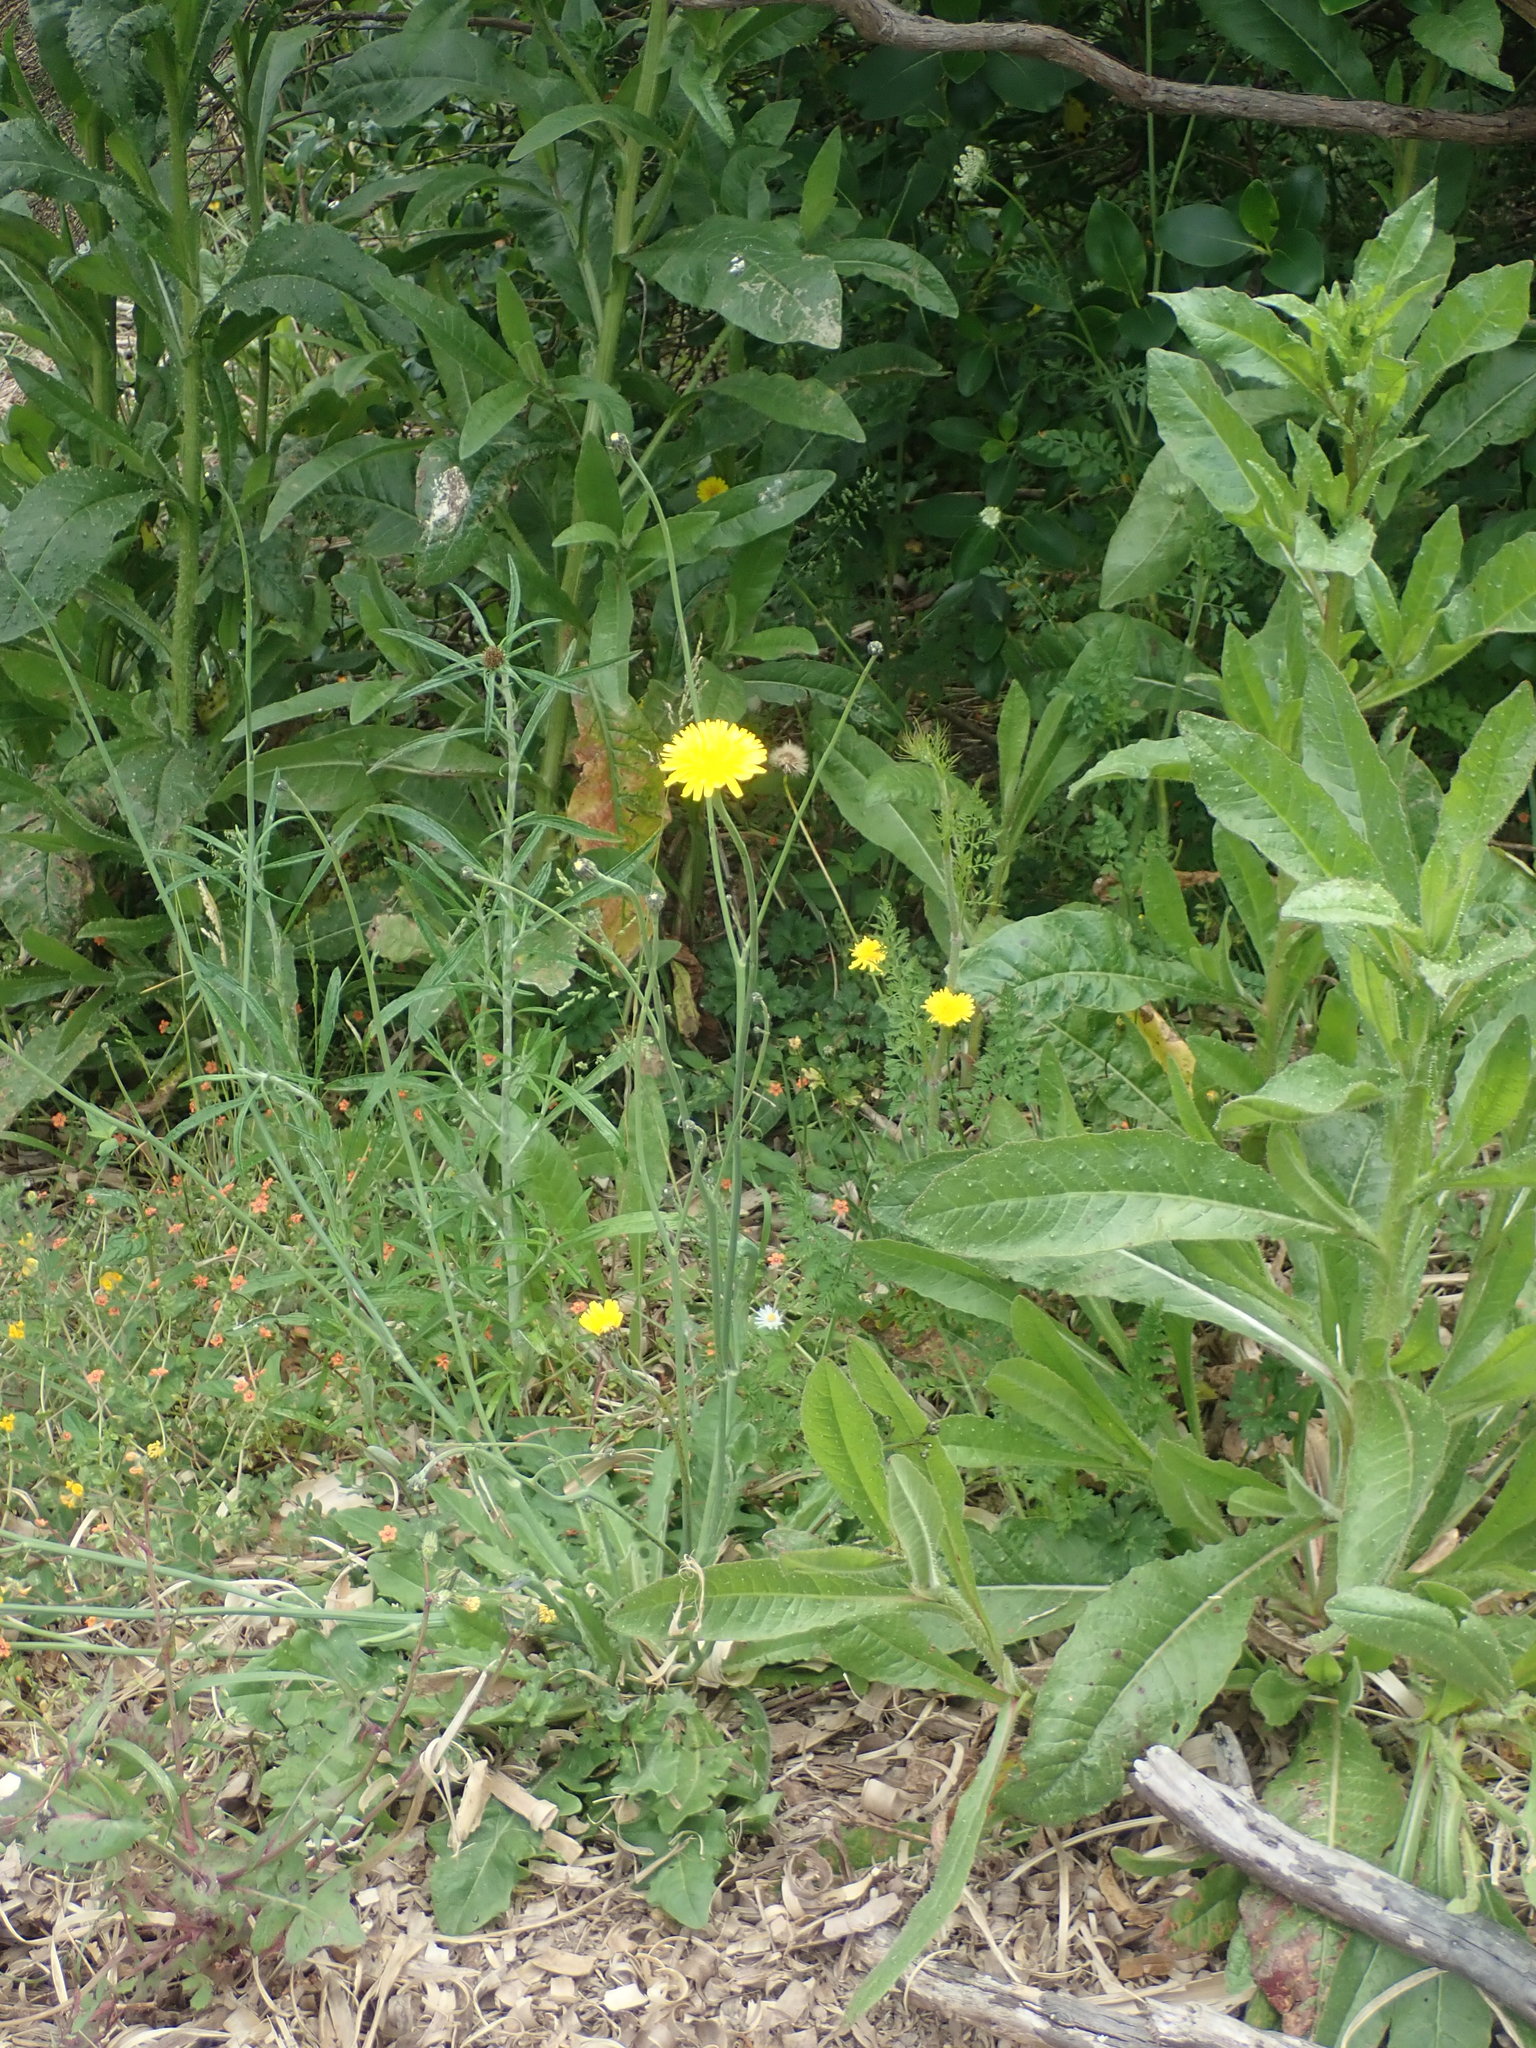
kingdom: Plantae
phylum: Tracheophyta
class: Magnoliopsida
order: Asterales
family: Asteraceae
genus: Hypochaeris
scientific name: Hypochaeris radicata
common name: Flatweed
